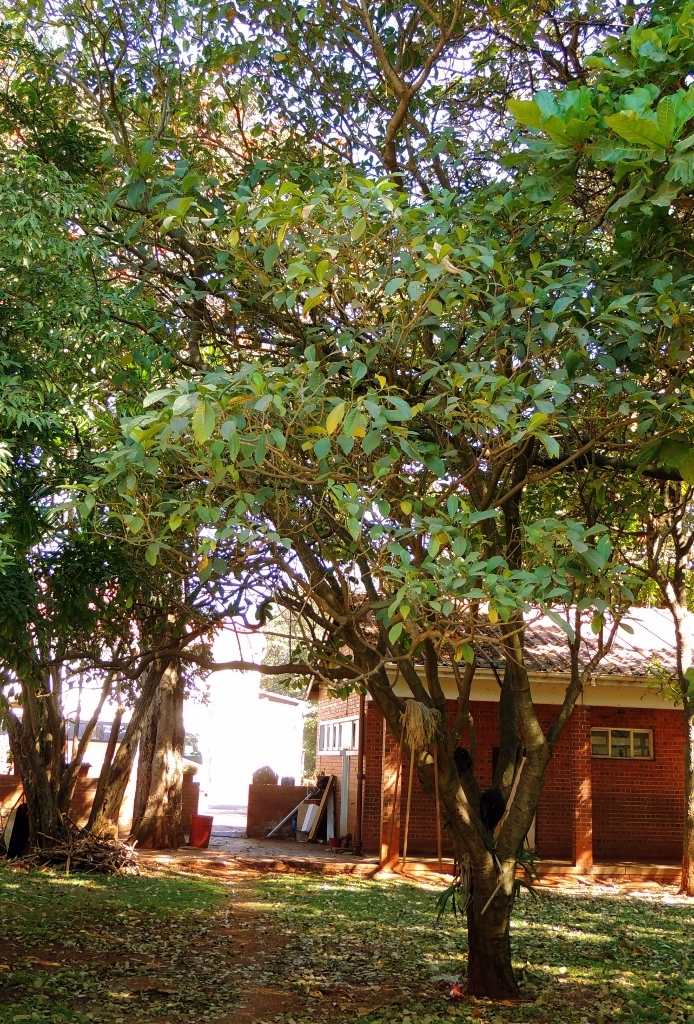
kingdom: Plantae
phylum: Tracheophyta
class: Magnoliopsida
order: Gentianales
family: Apocynaceae
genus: Voacanga
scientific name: Voacanga africana
